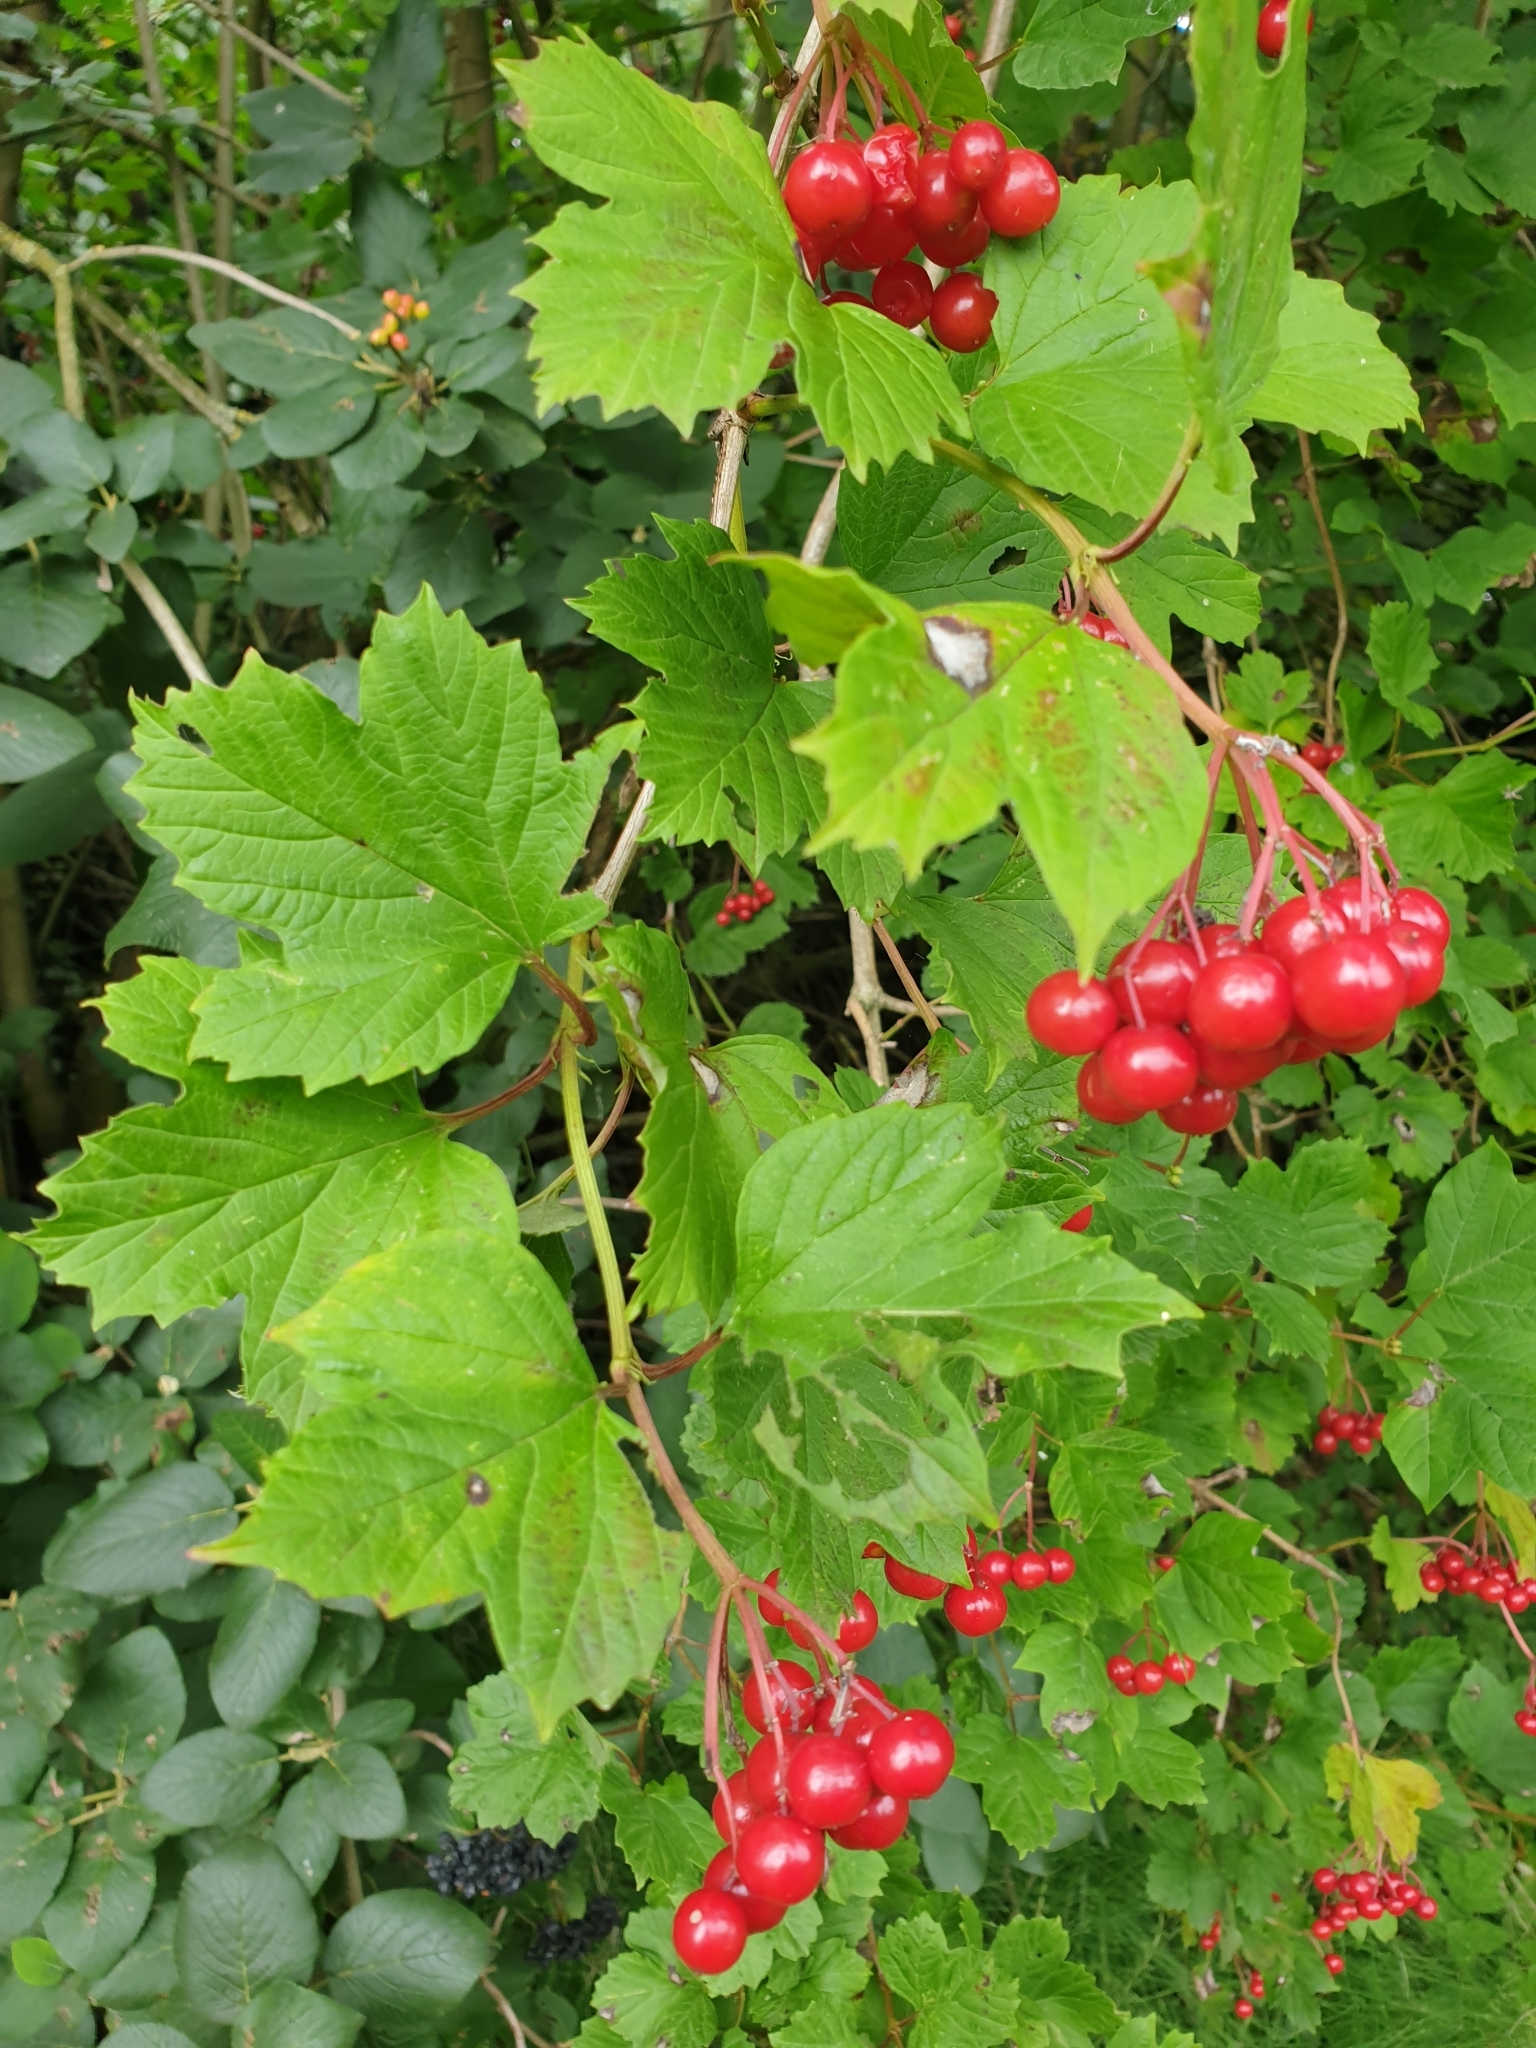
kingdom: Plantae
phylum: Tracheophyta
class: Magnoliopsida
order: Dipsacales
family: Viburnaceae
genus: Viburnum
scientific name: Viburnum opulus
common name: Guelder-rose
